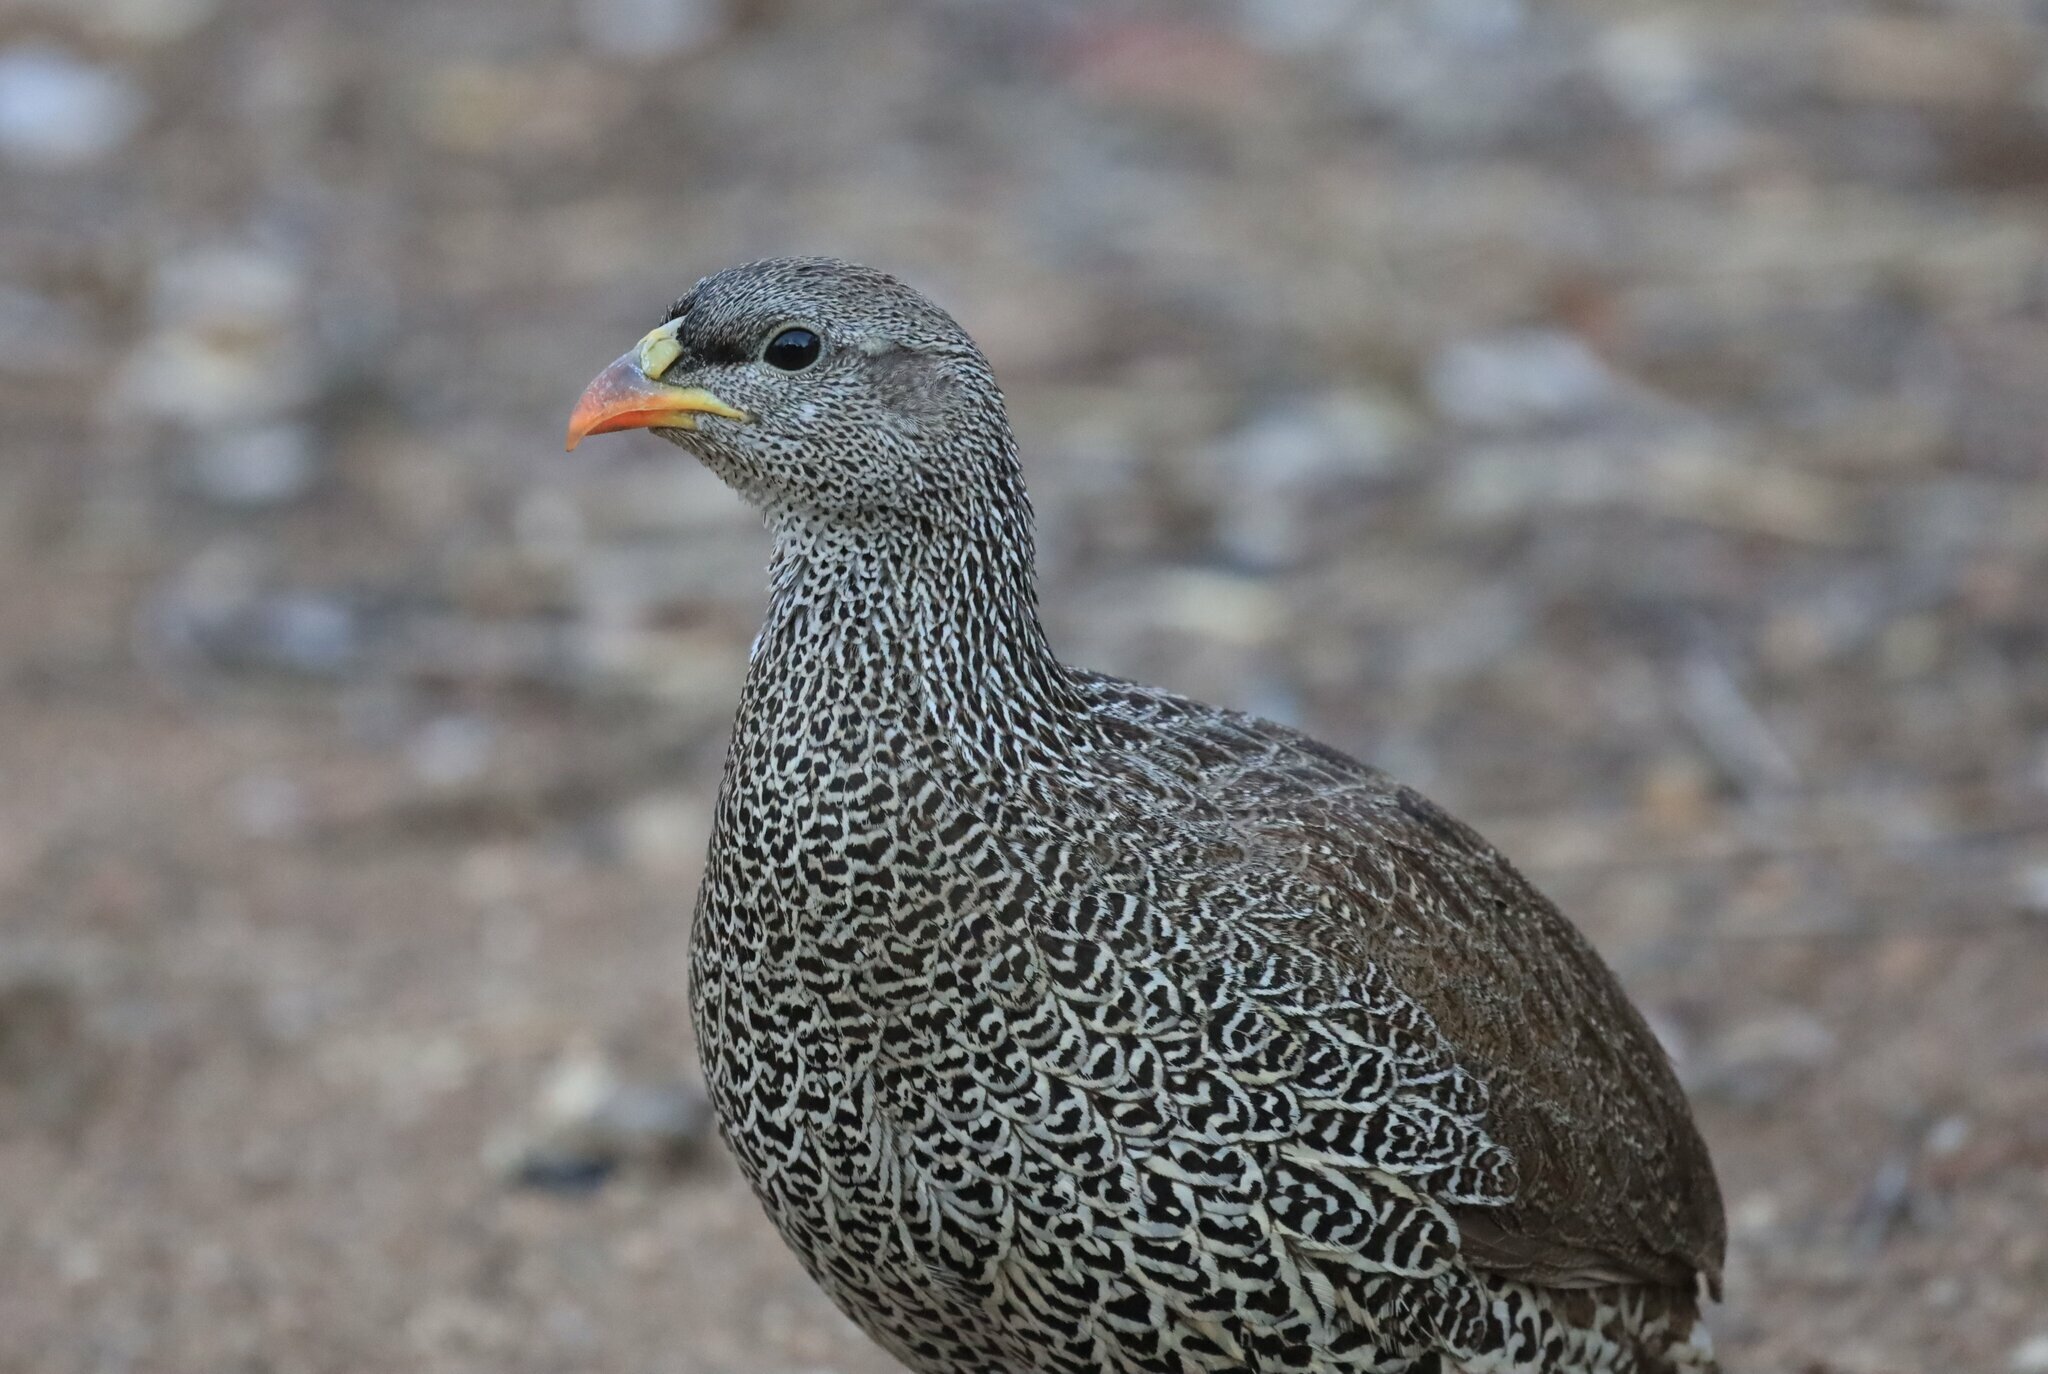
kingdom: Animalia
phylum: Chordata
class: Aves
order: Galliformes
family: Phasianidae
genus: Pternistis
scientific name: Pternistis natalensis
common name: Natal spurfowl
